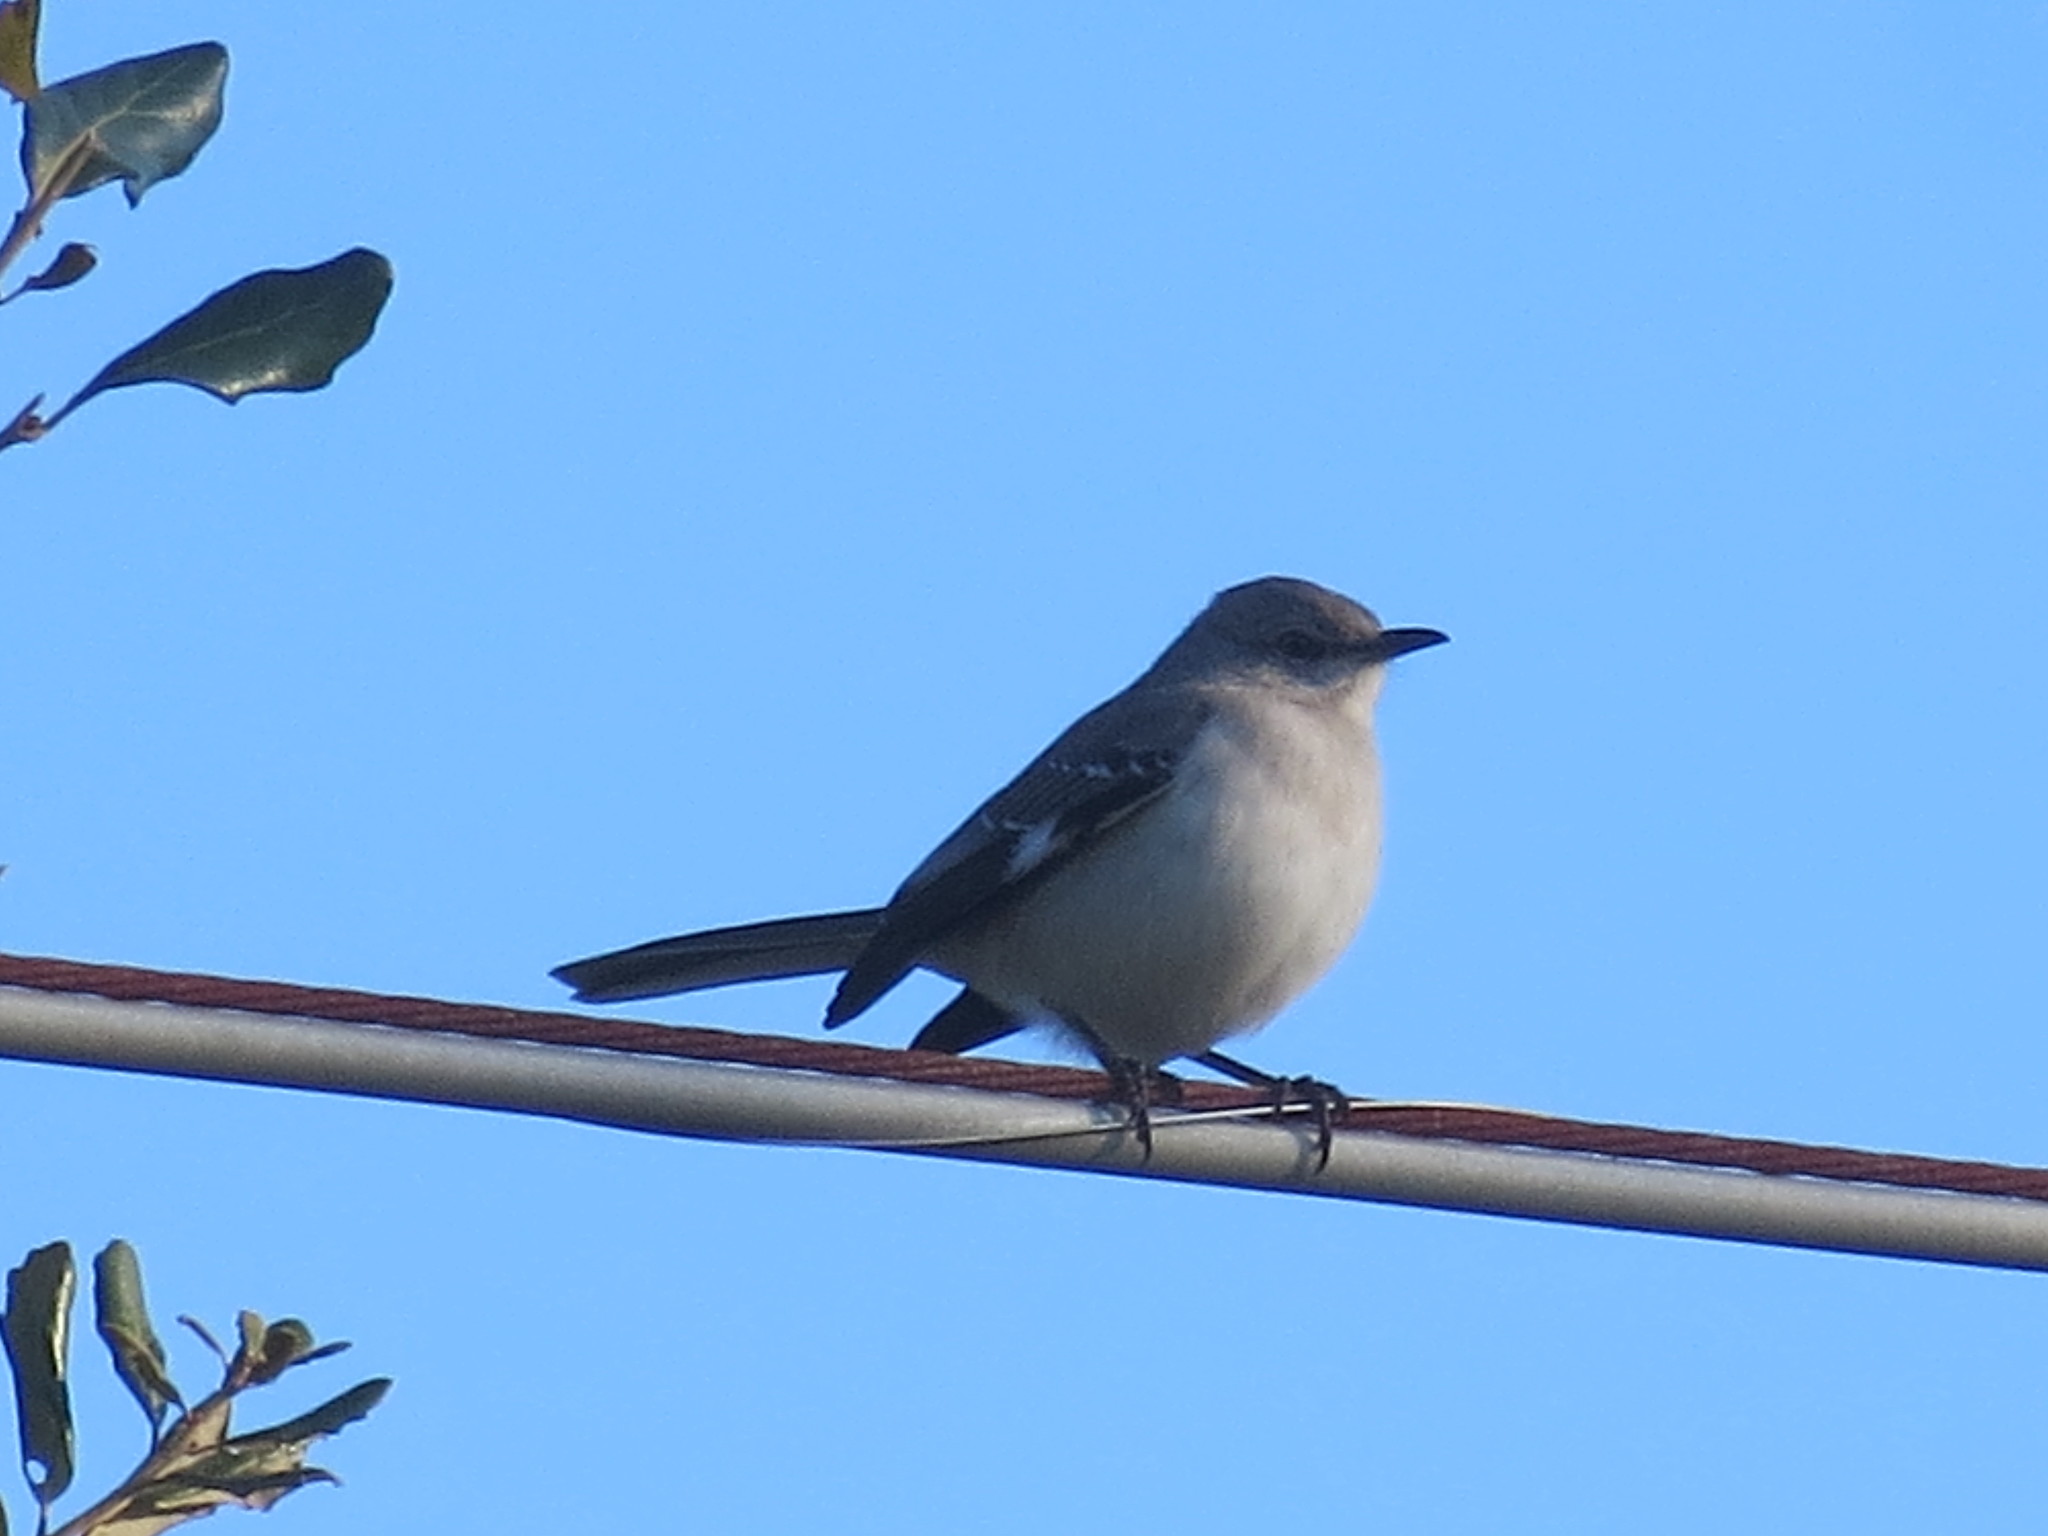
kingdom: Animalia
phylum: Chordata
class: Aves
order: Passeriformes
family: Mimidae
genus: Mimus
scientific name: Mimus polyglottos
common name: Northern mockingbird
